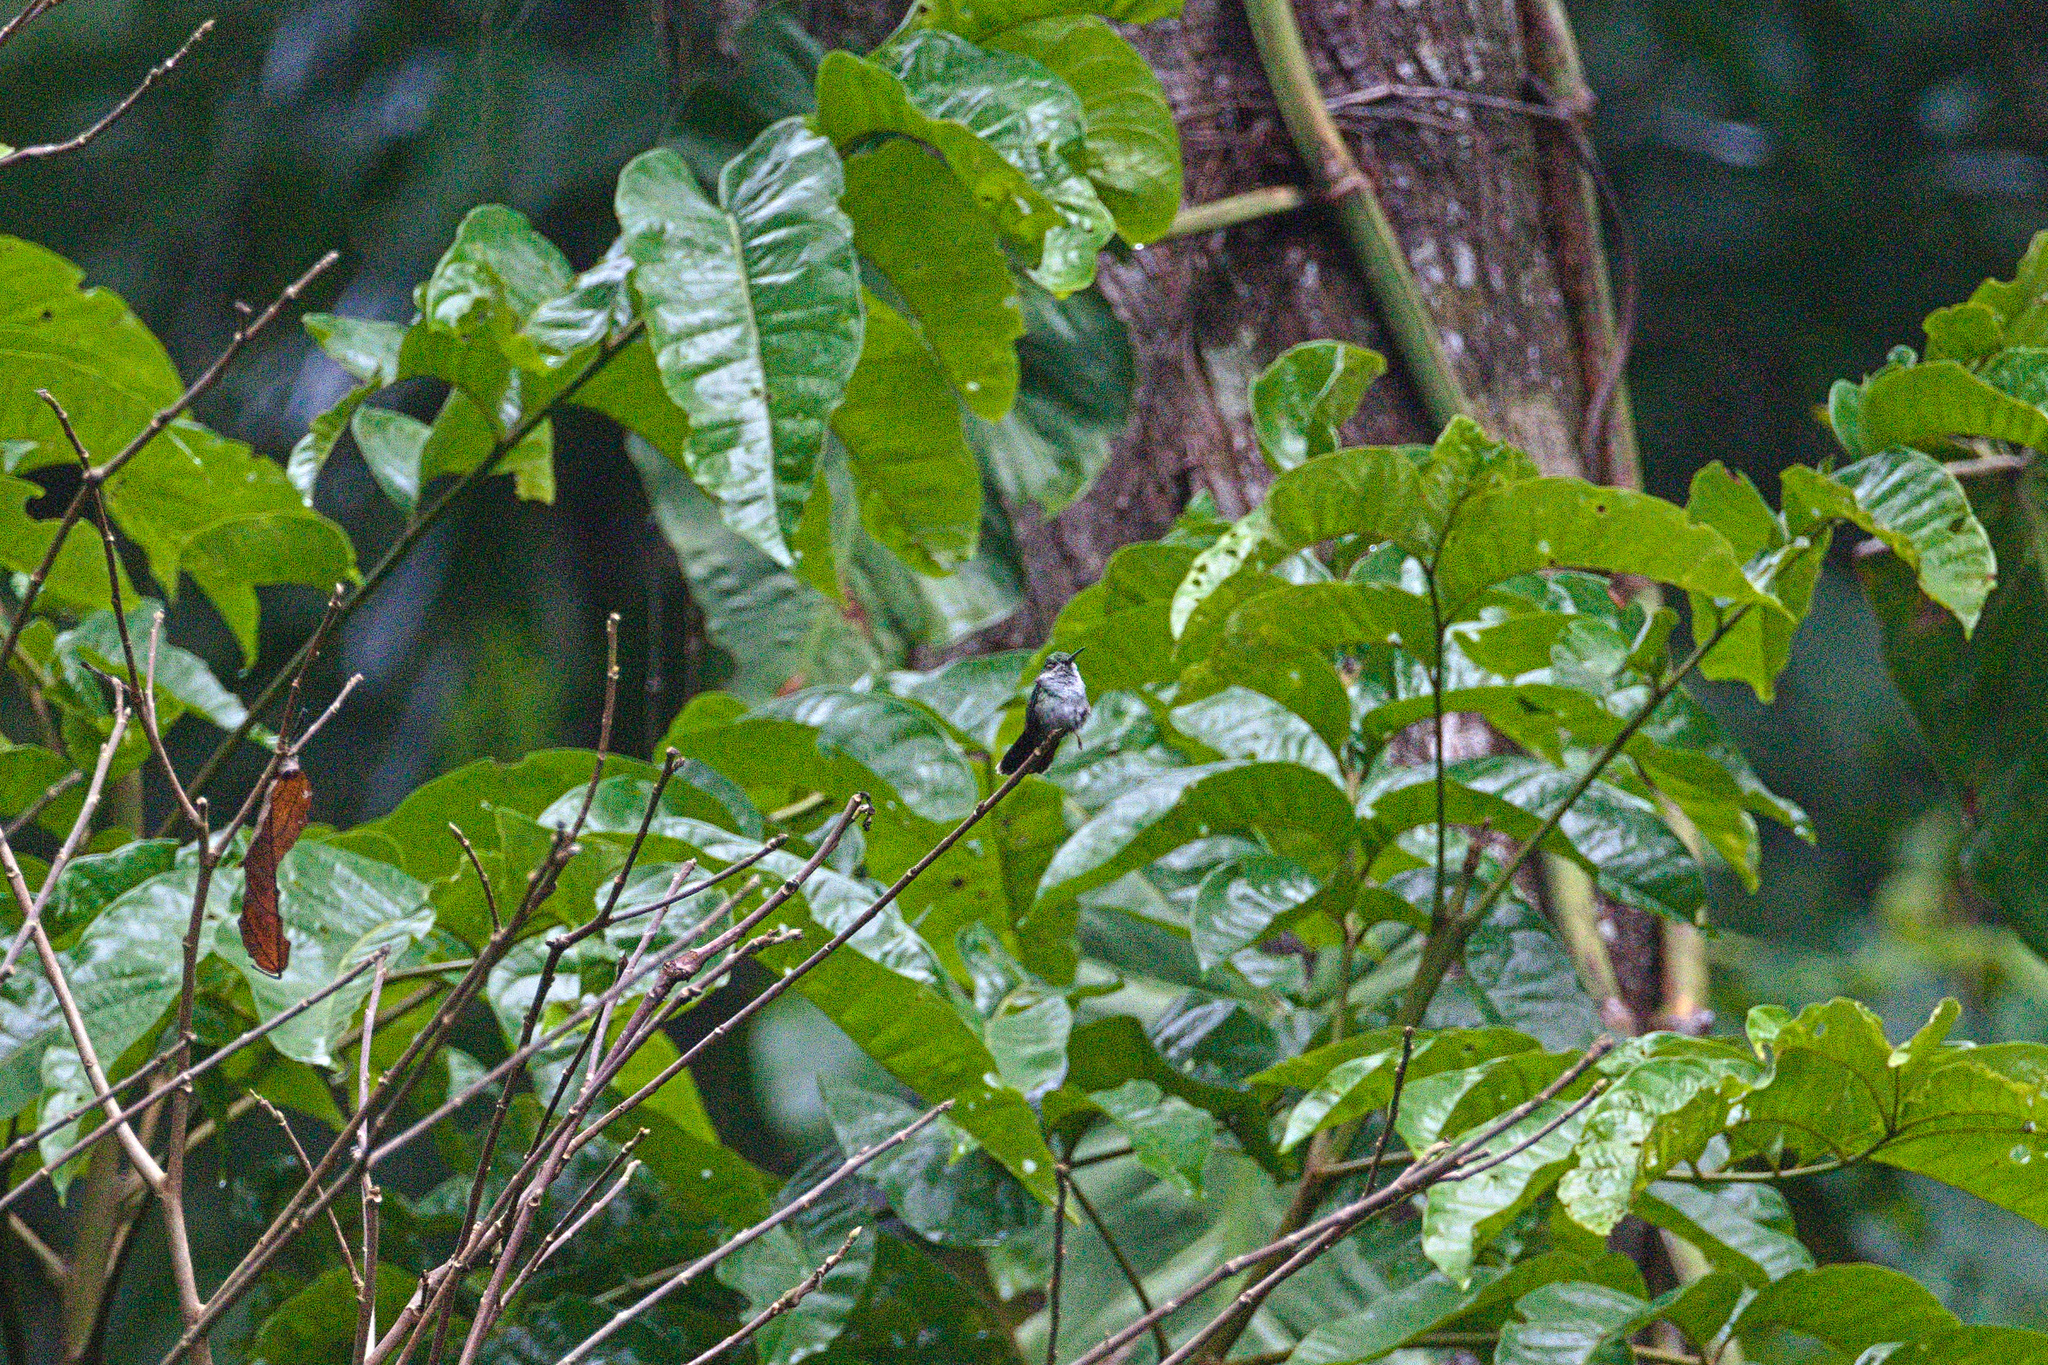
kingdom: Animalia
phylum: Chordata
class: Aves
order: Apodiformes
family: Trochilidae
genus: Thalurania
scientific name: Thalurania colombica
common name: Crowned woodnymph
